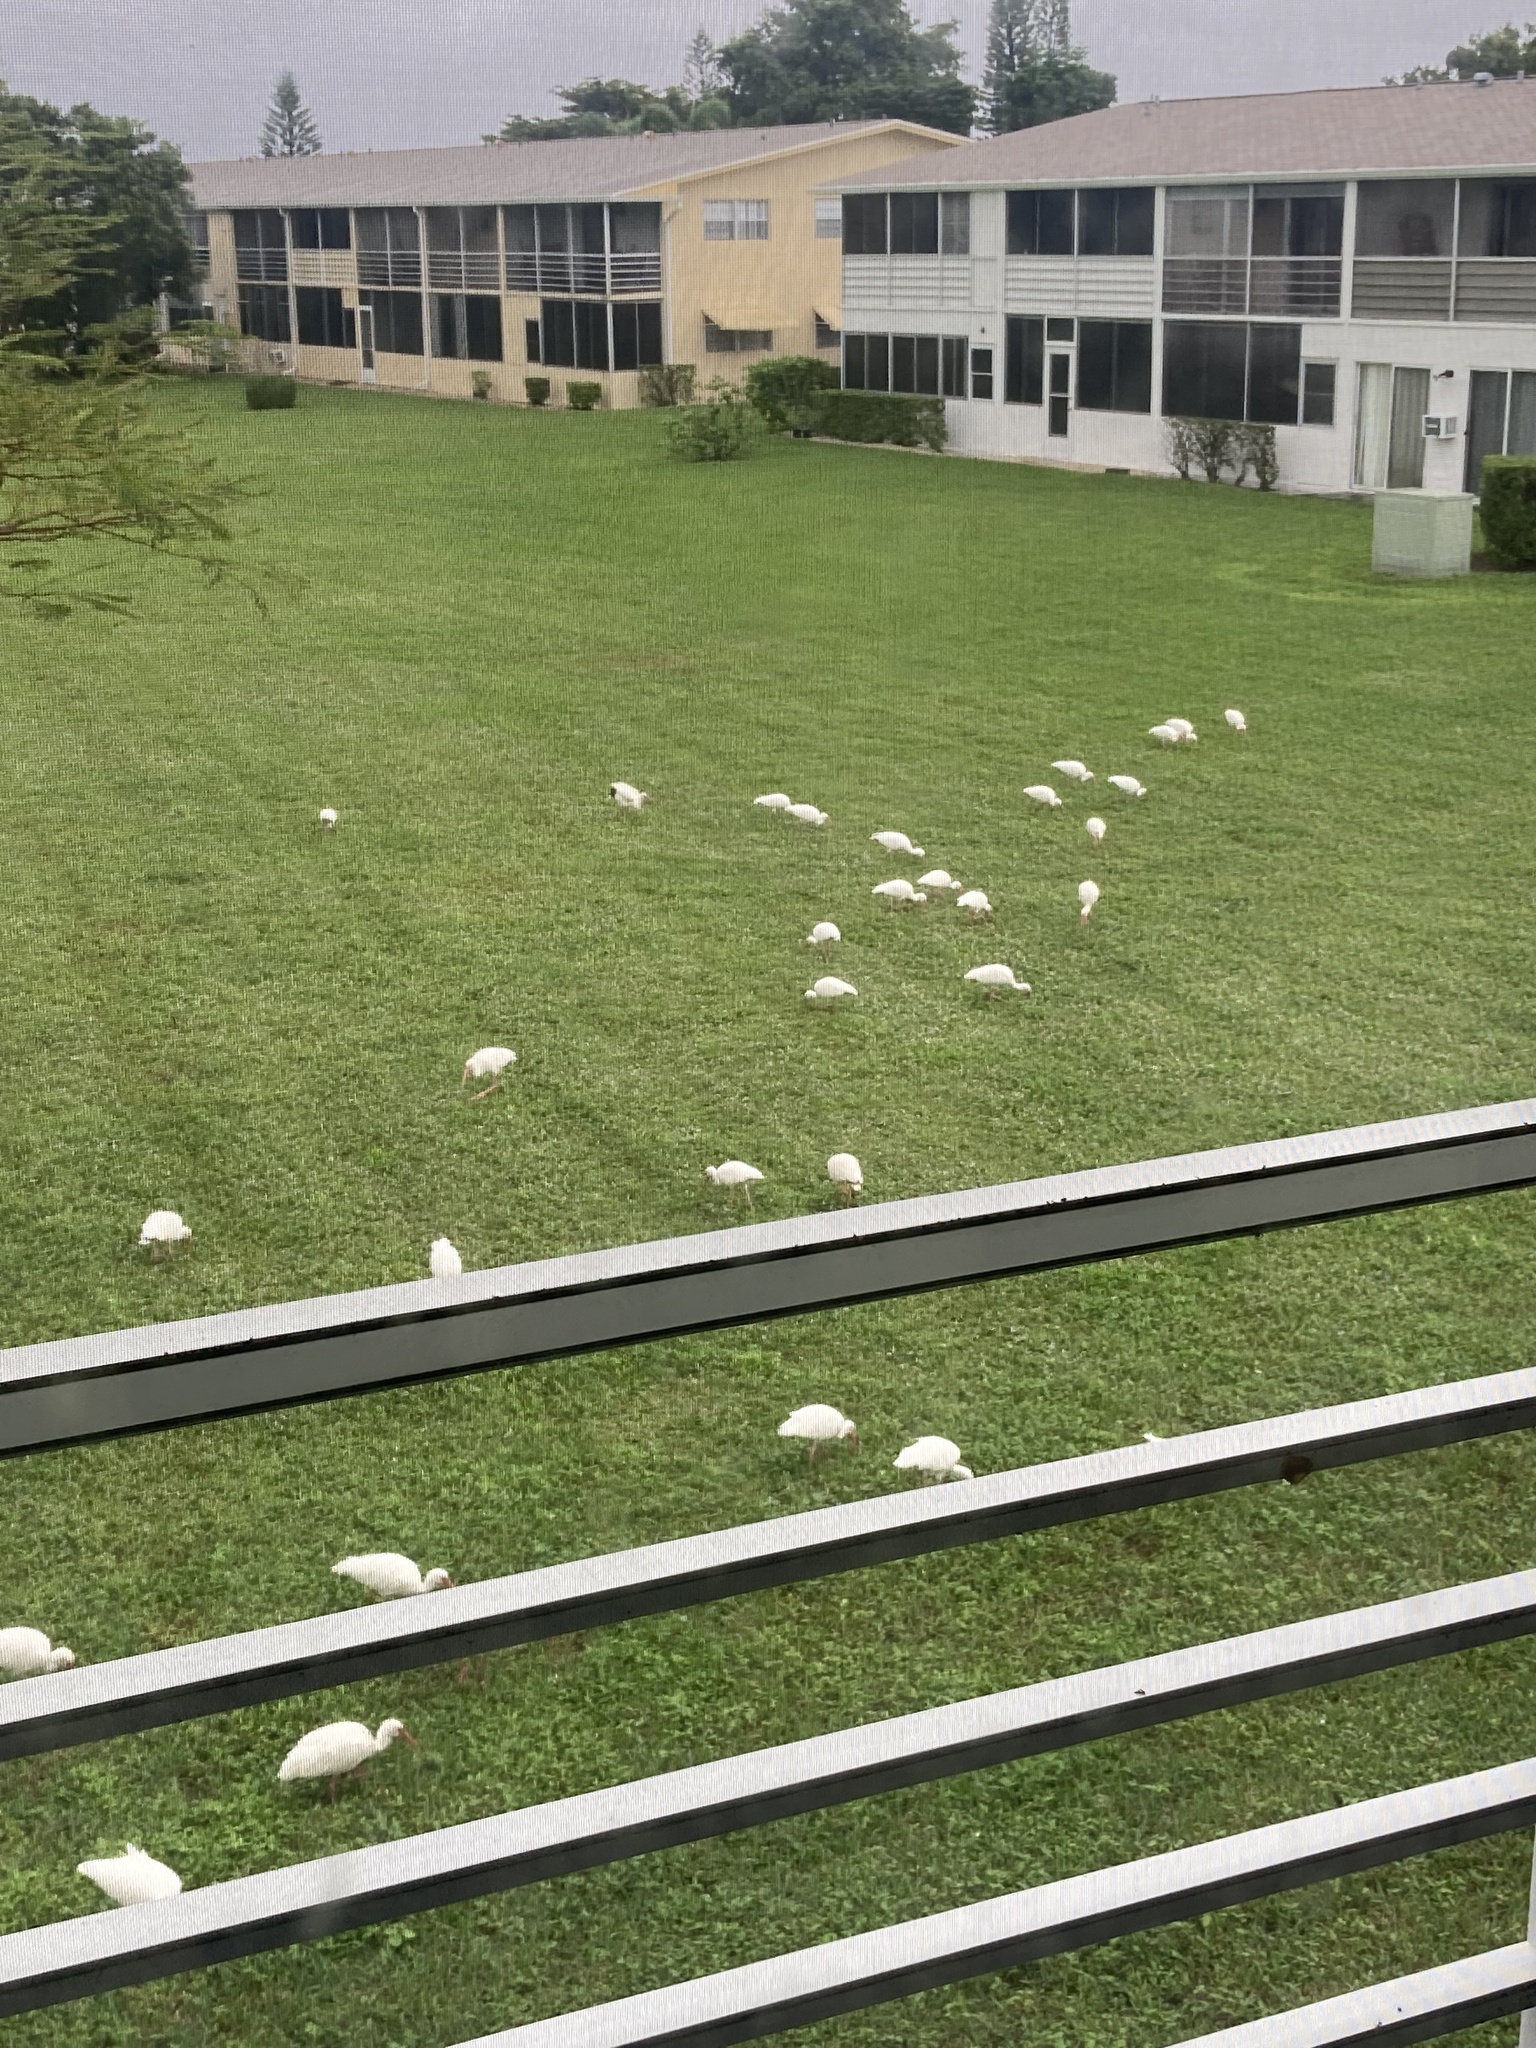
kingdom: Animalia
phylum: Chordata
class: Aves
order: Pelecaniformes
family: Threskiornithidae
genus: Eudocimus
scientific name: Eudocimus albus
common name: White ibis
